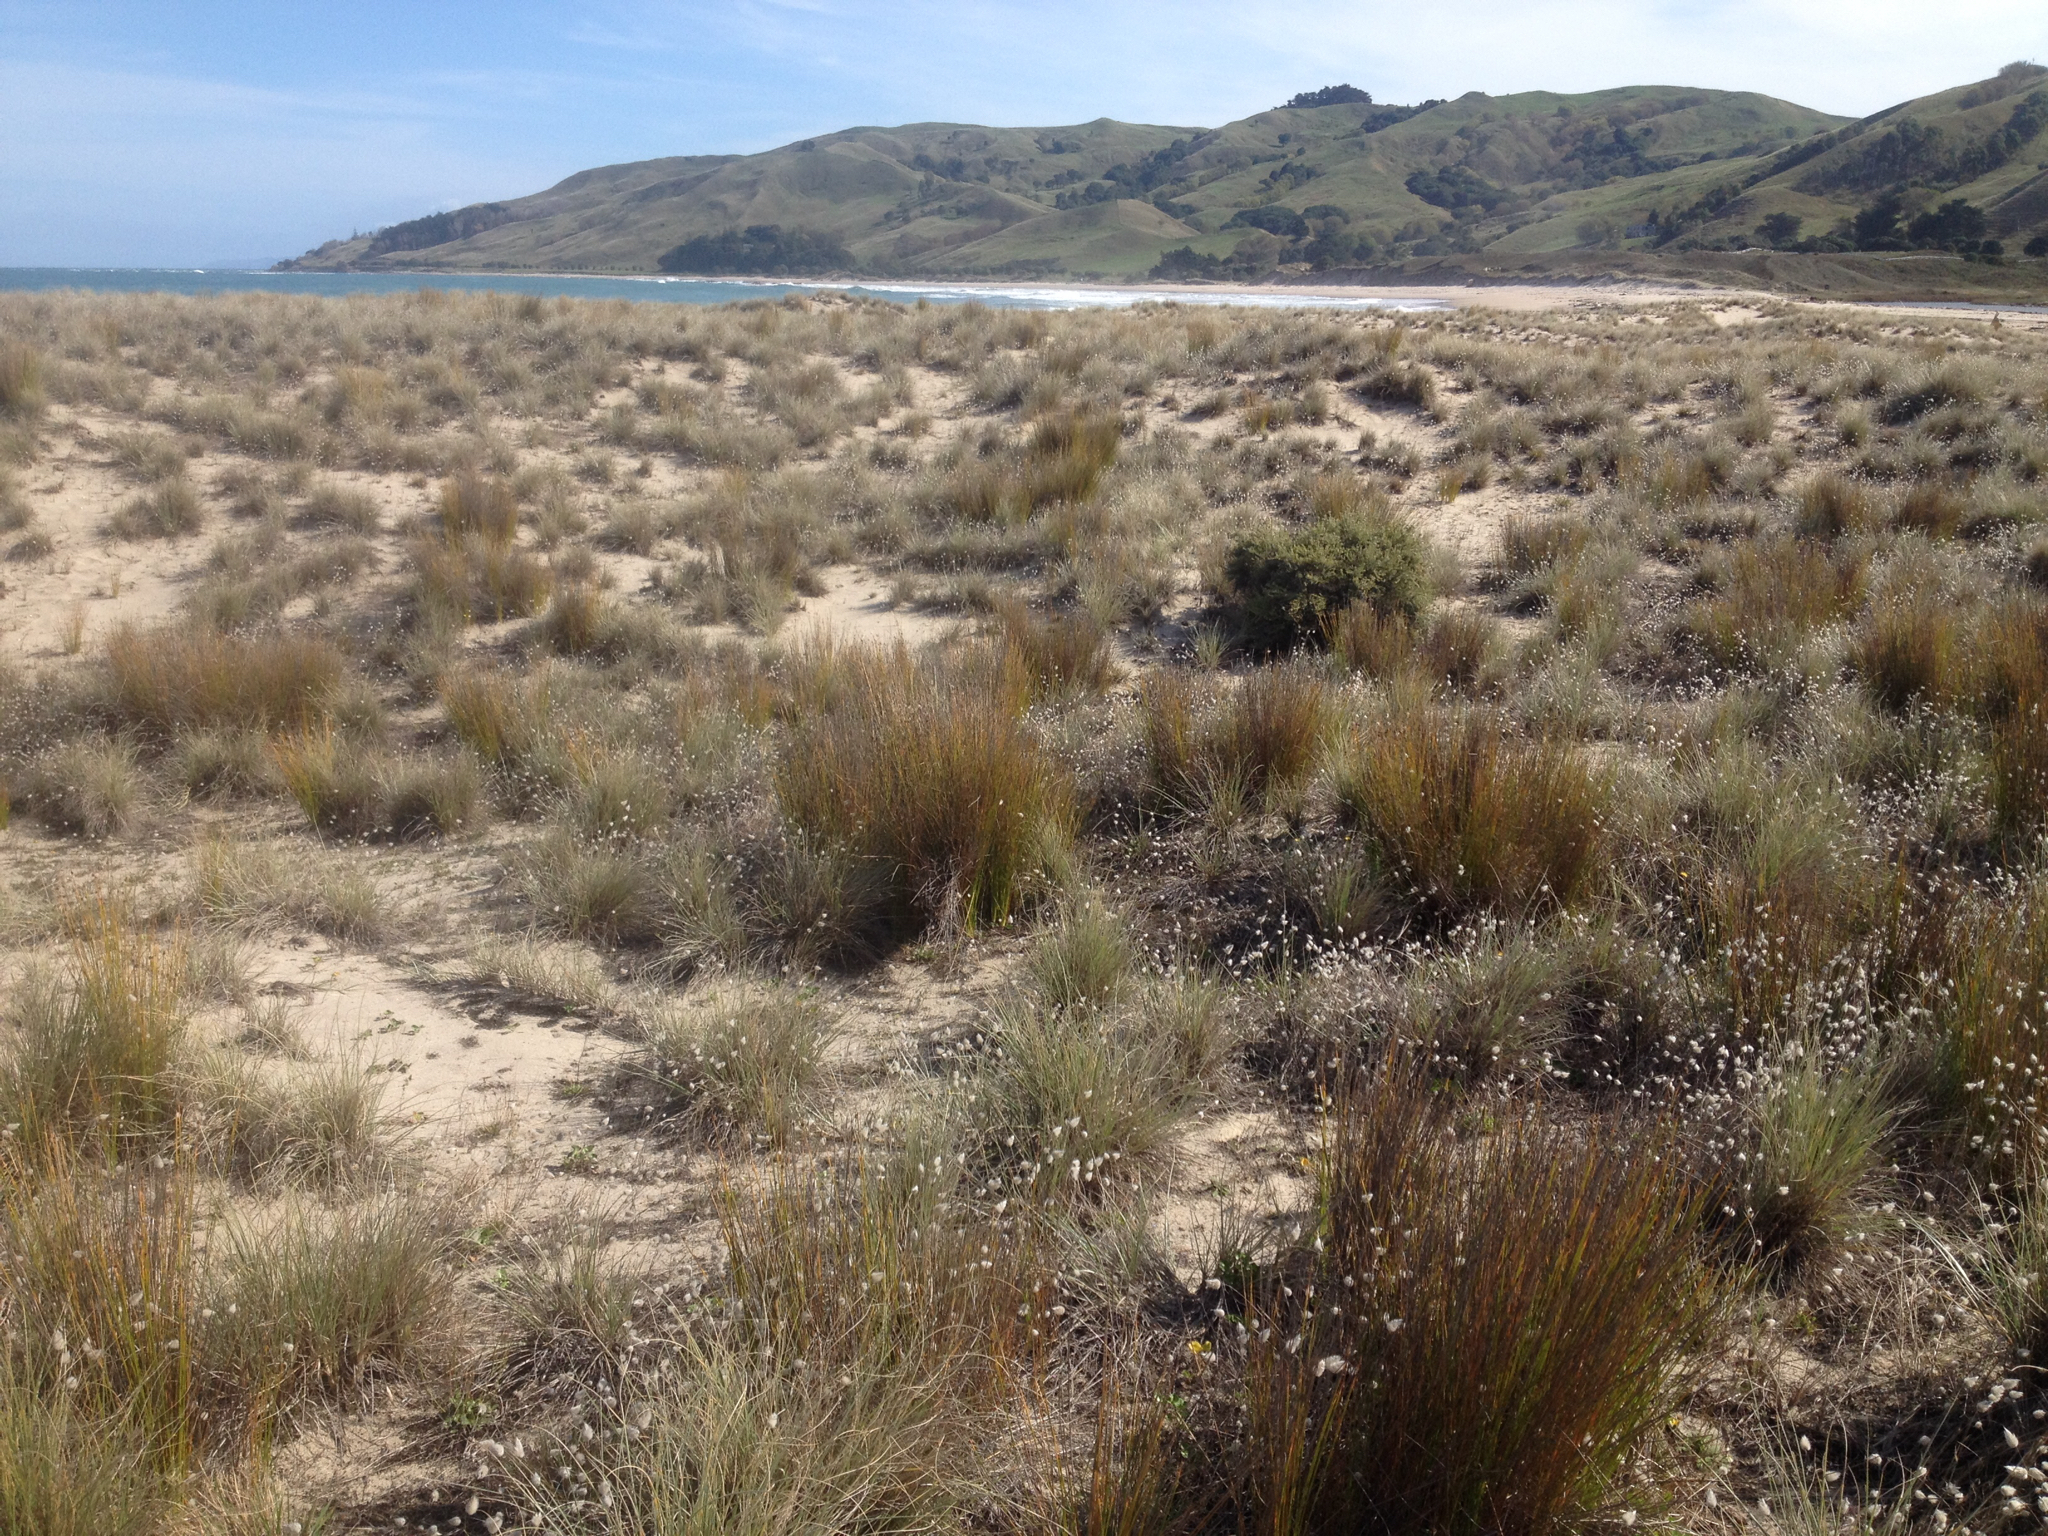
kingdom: Plantae
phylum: Tracheophyta
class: Liliopsida
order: Poales
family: Cyperaceae
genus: Ficinia
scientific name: Ficinia nodosa
